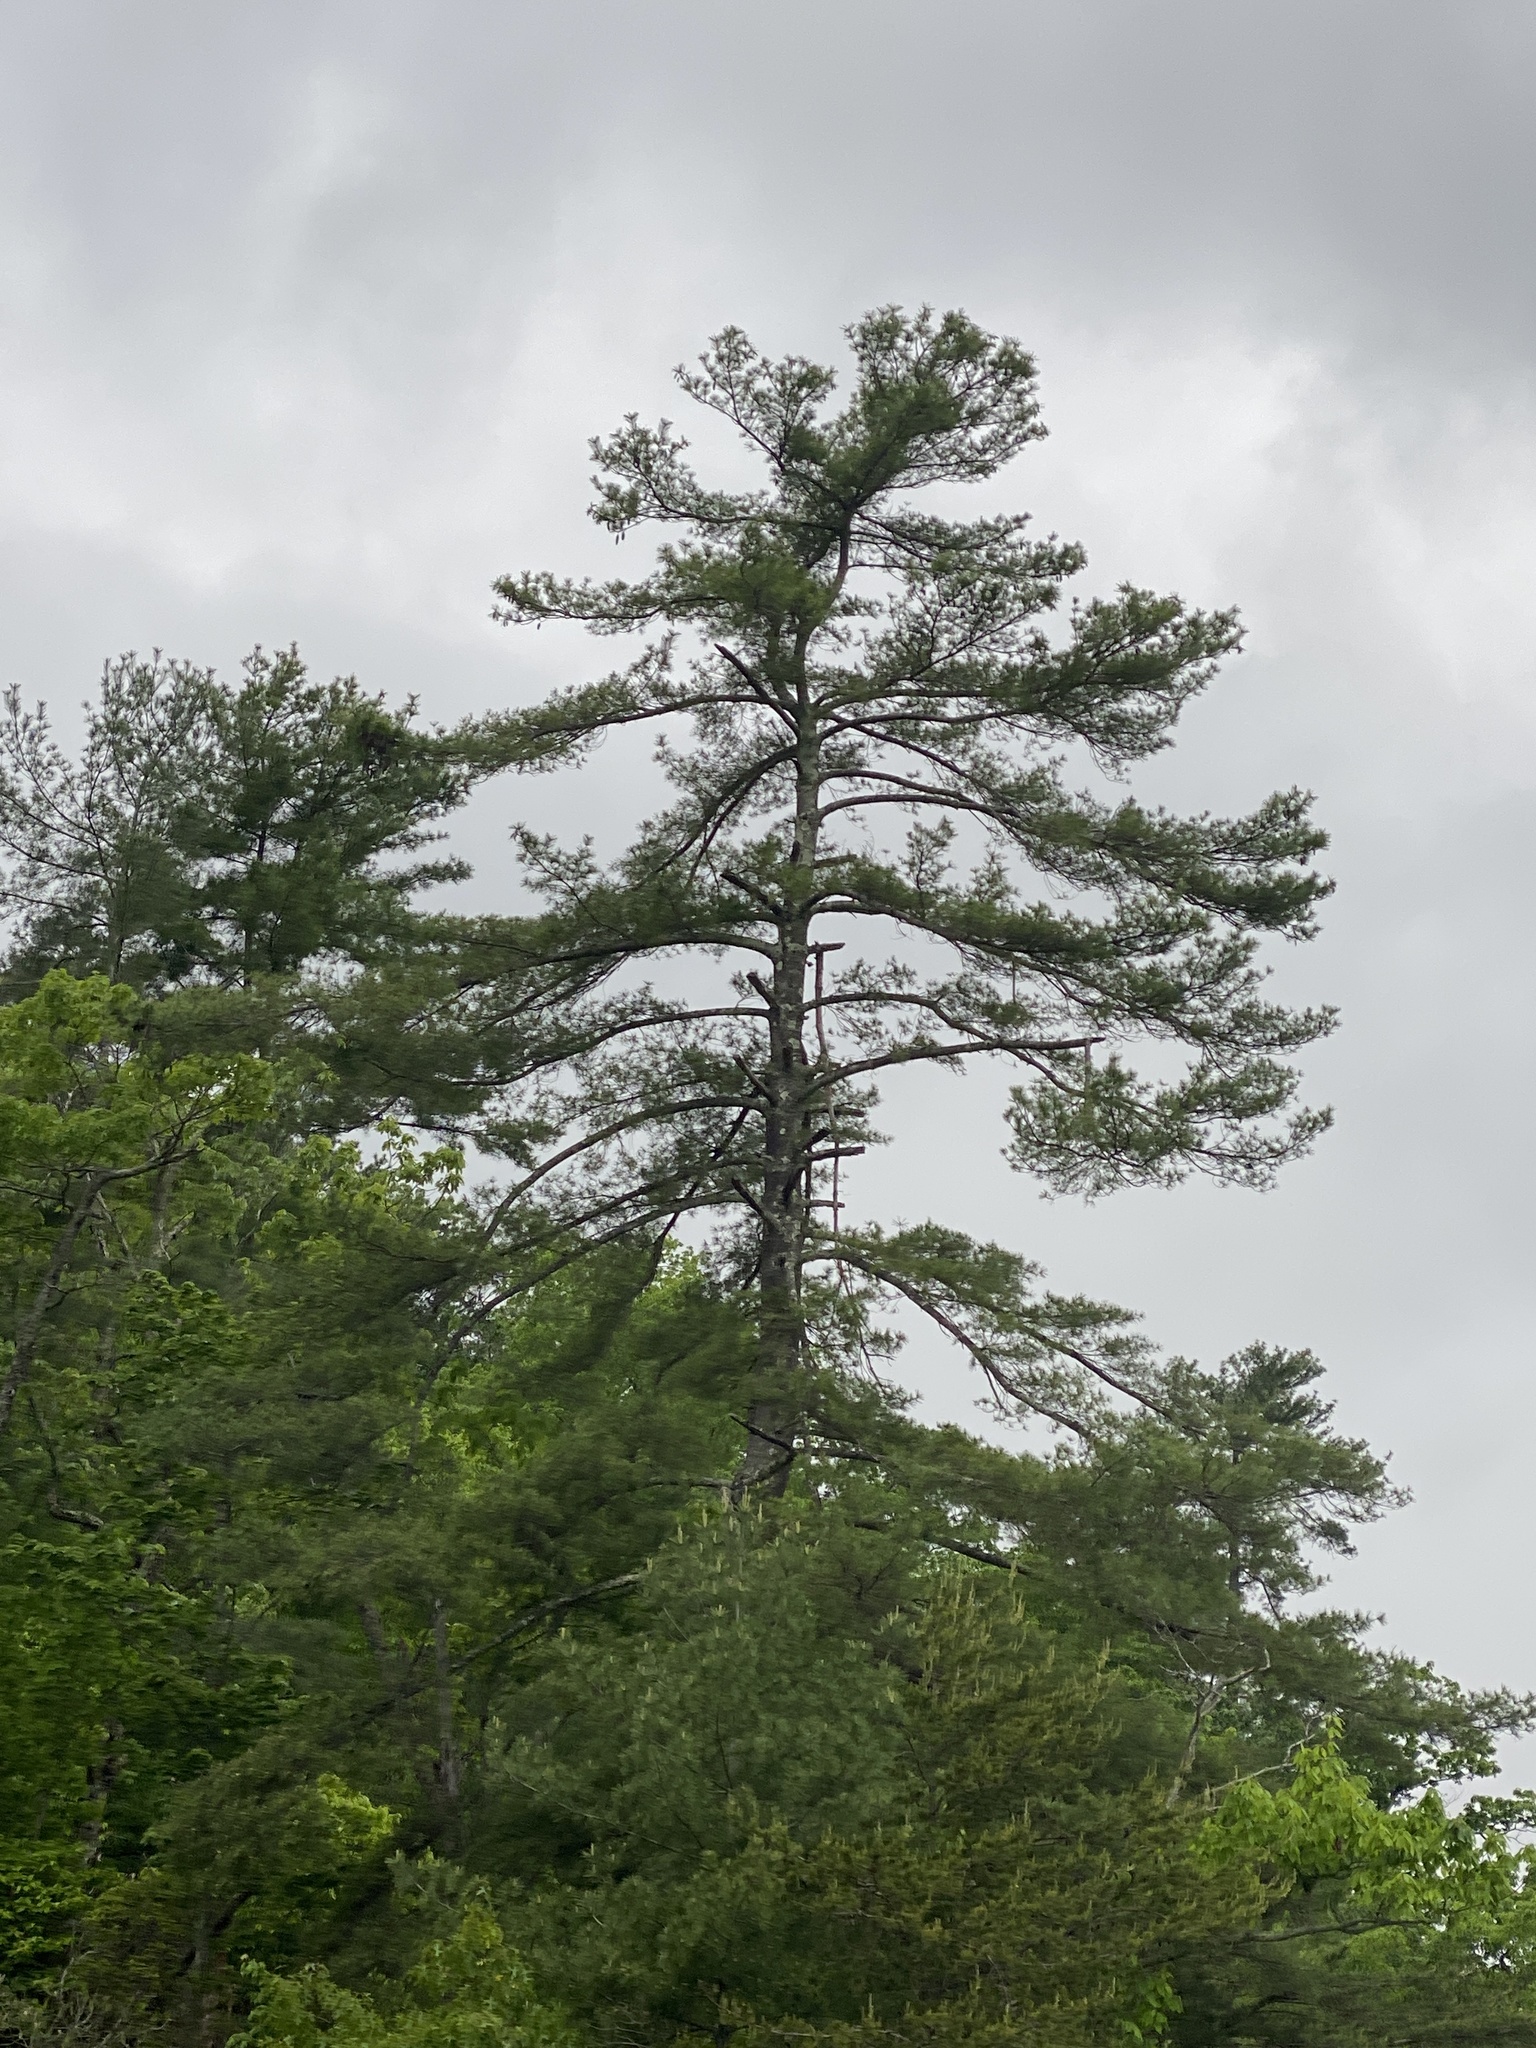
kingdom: Plantae
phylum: Tracheophyta
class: Pinopsida
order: Pinales
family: Pinaceae
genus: Pinus
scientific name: Pinus strobus
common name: Weymouth pine
